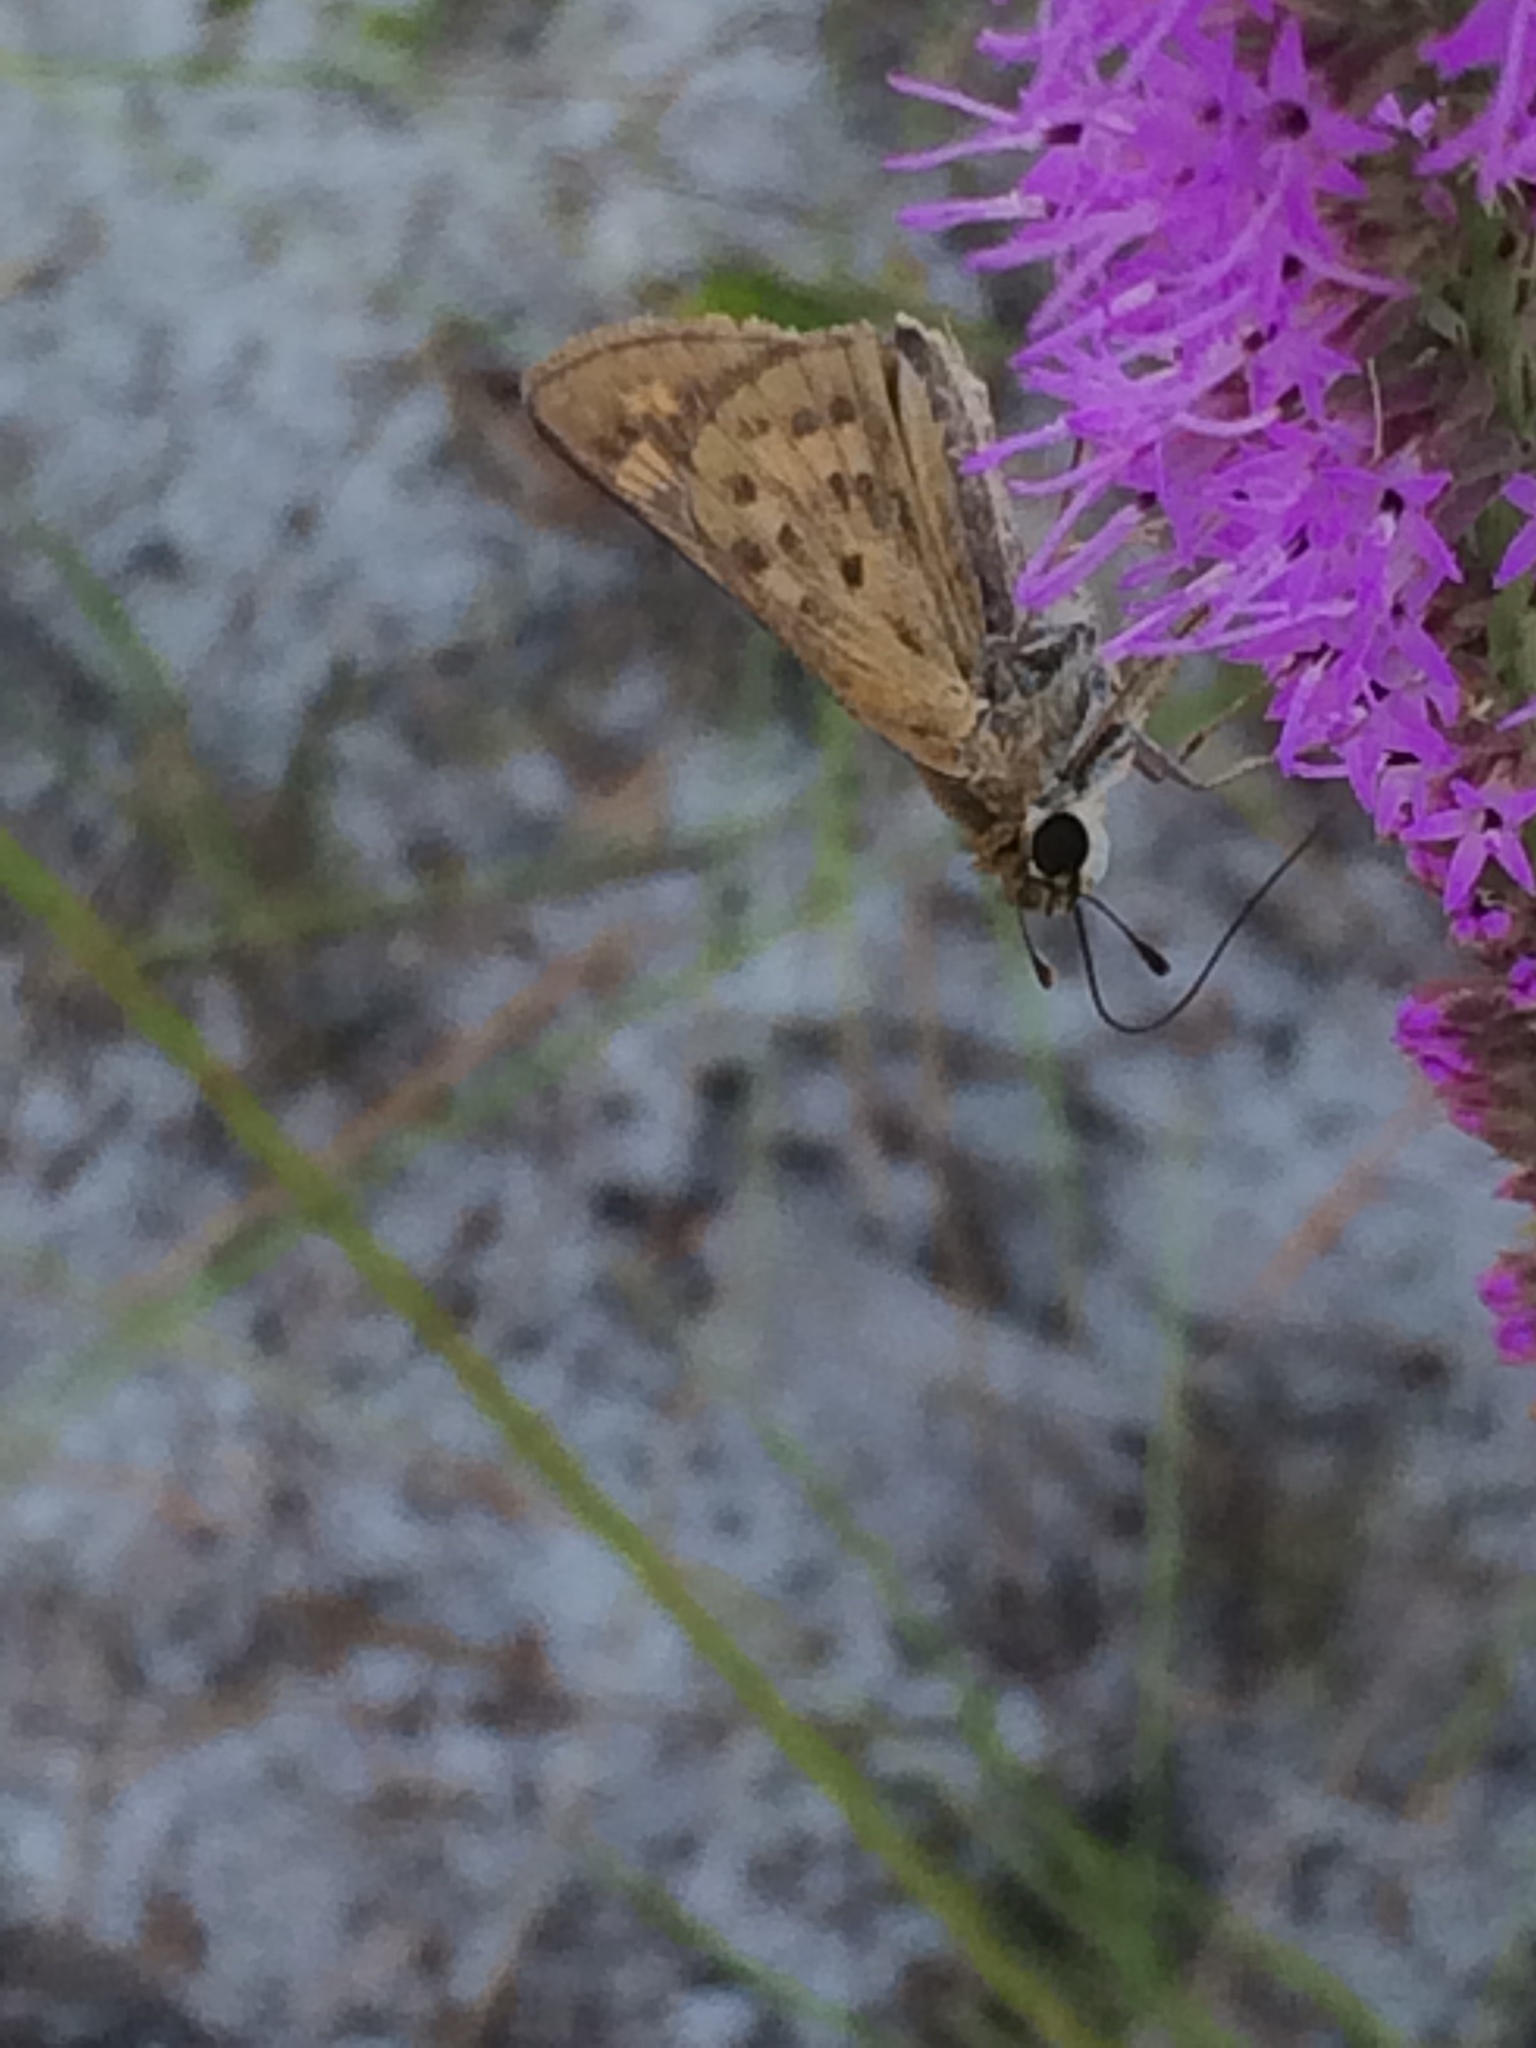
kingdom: Animalia
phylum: Arthropoda
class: Insecta
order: Lepidoptera
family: Hesperiidae
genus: Hylephila
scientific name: Hylephila phyleus
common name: Fiery skipper
